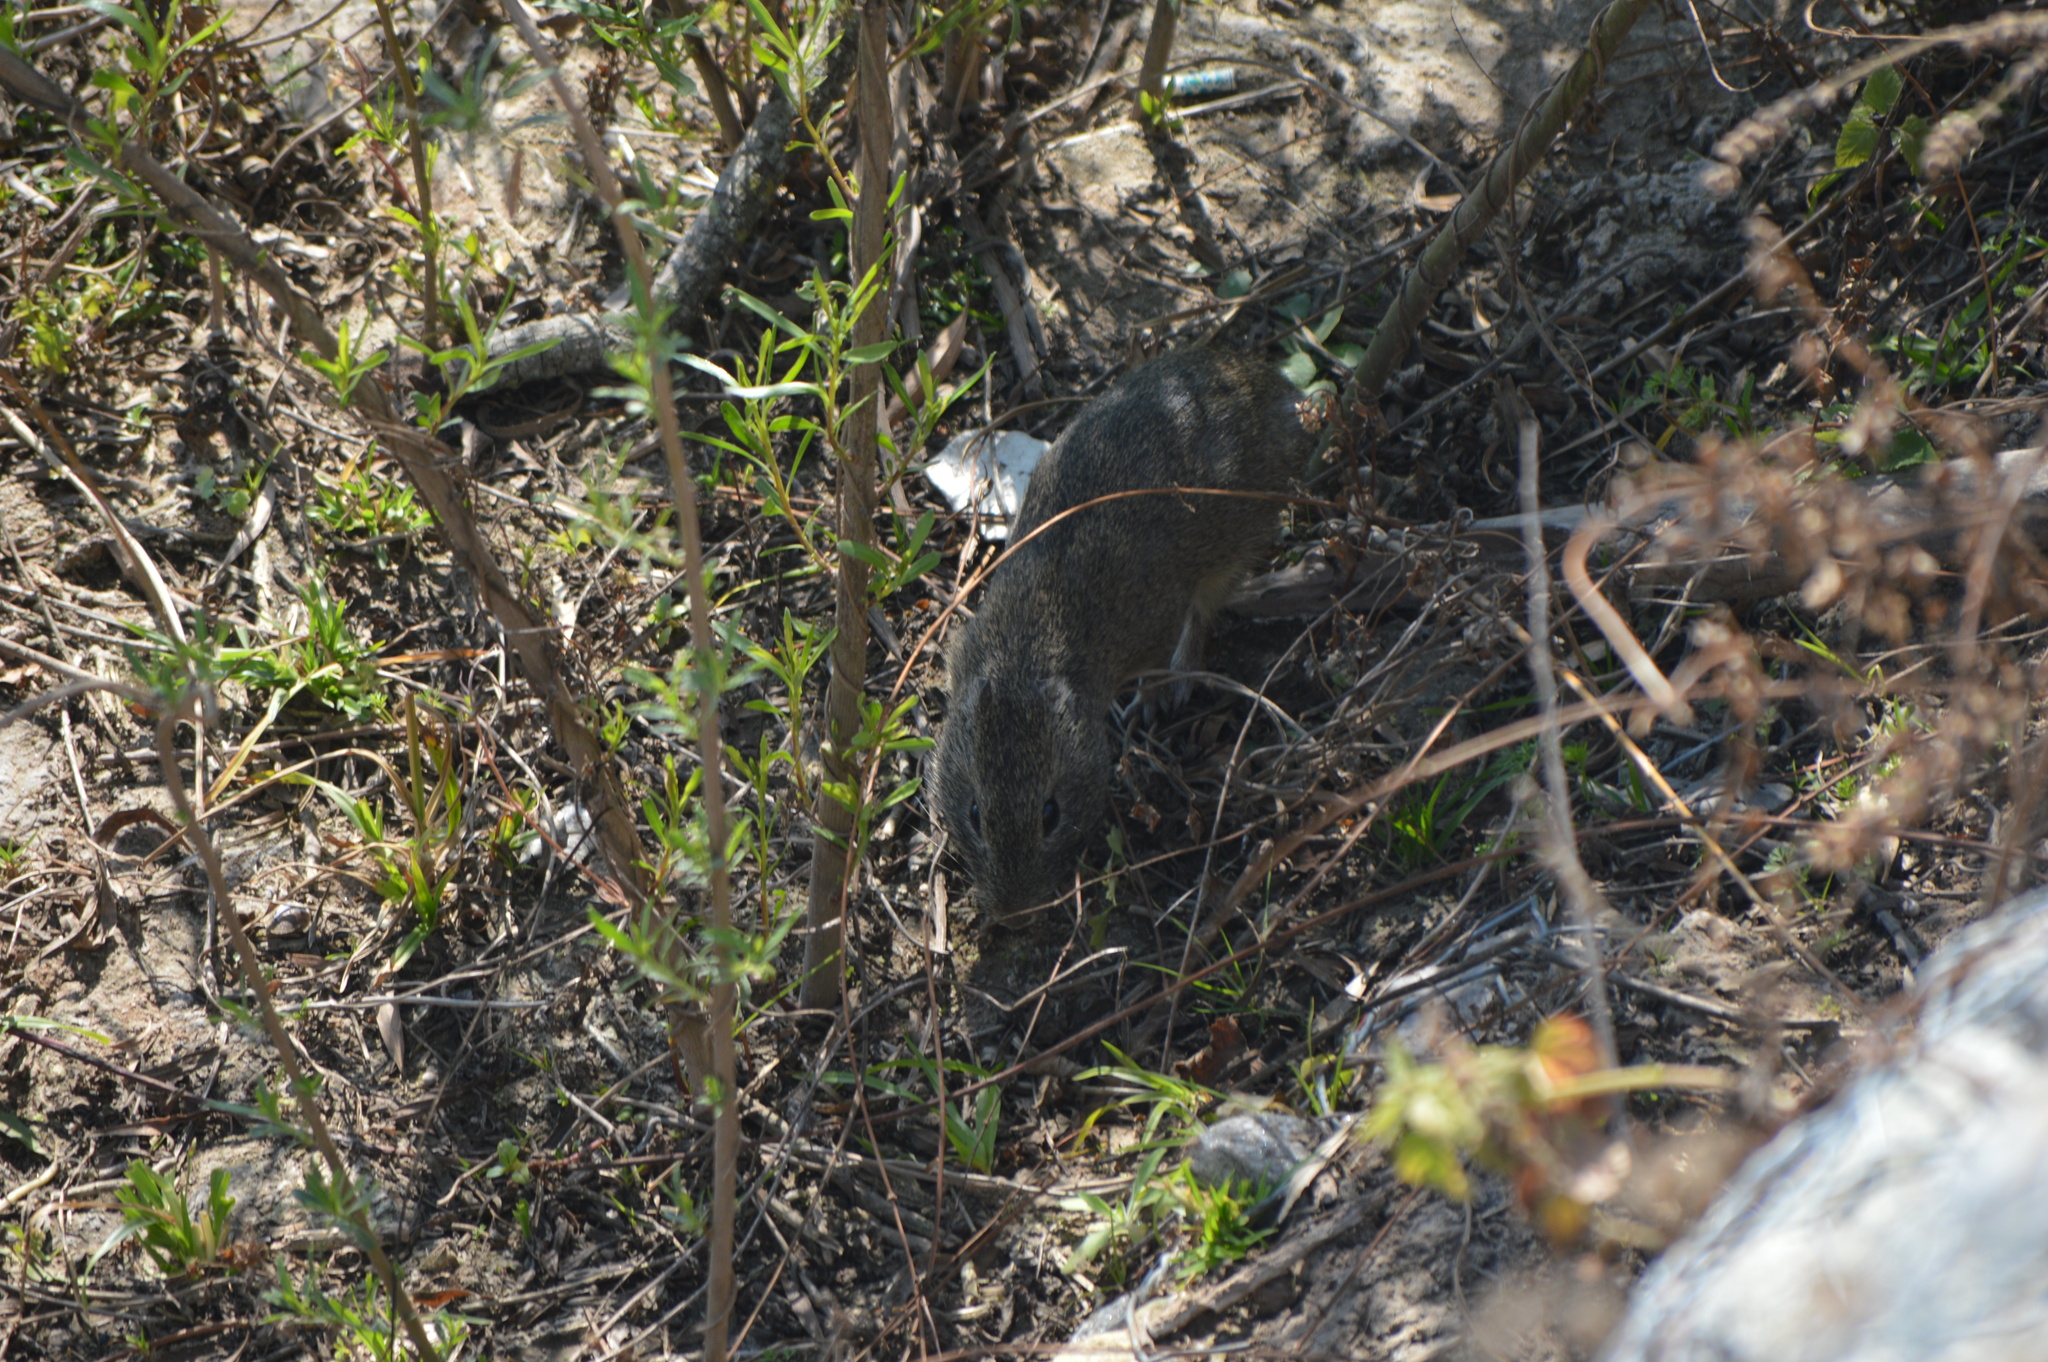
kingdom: Animalia
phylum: Chordata
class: Mammalia
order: Rodentia
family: Caviidae
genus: Cavia
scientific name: Cavia aperea
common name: Brazilian guinea pig
